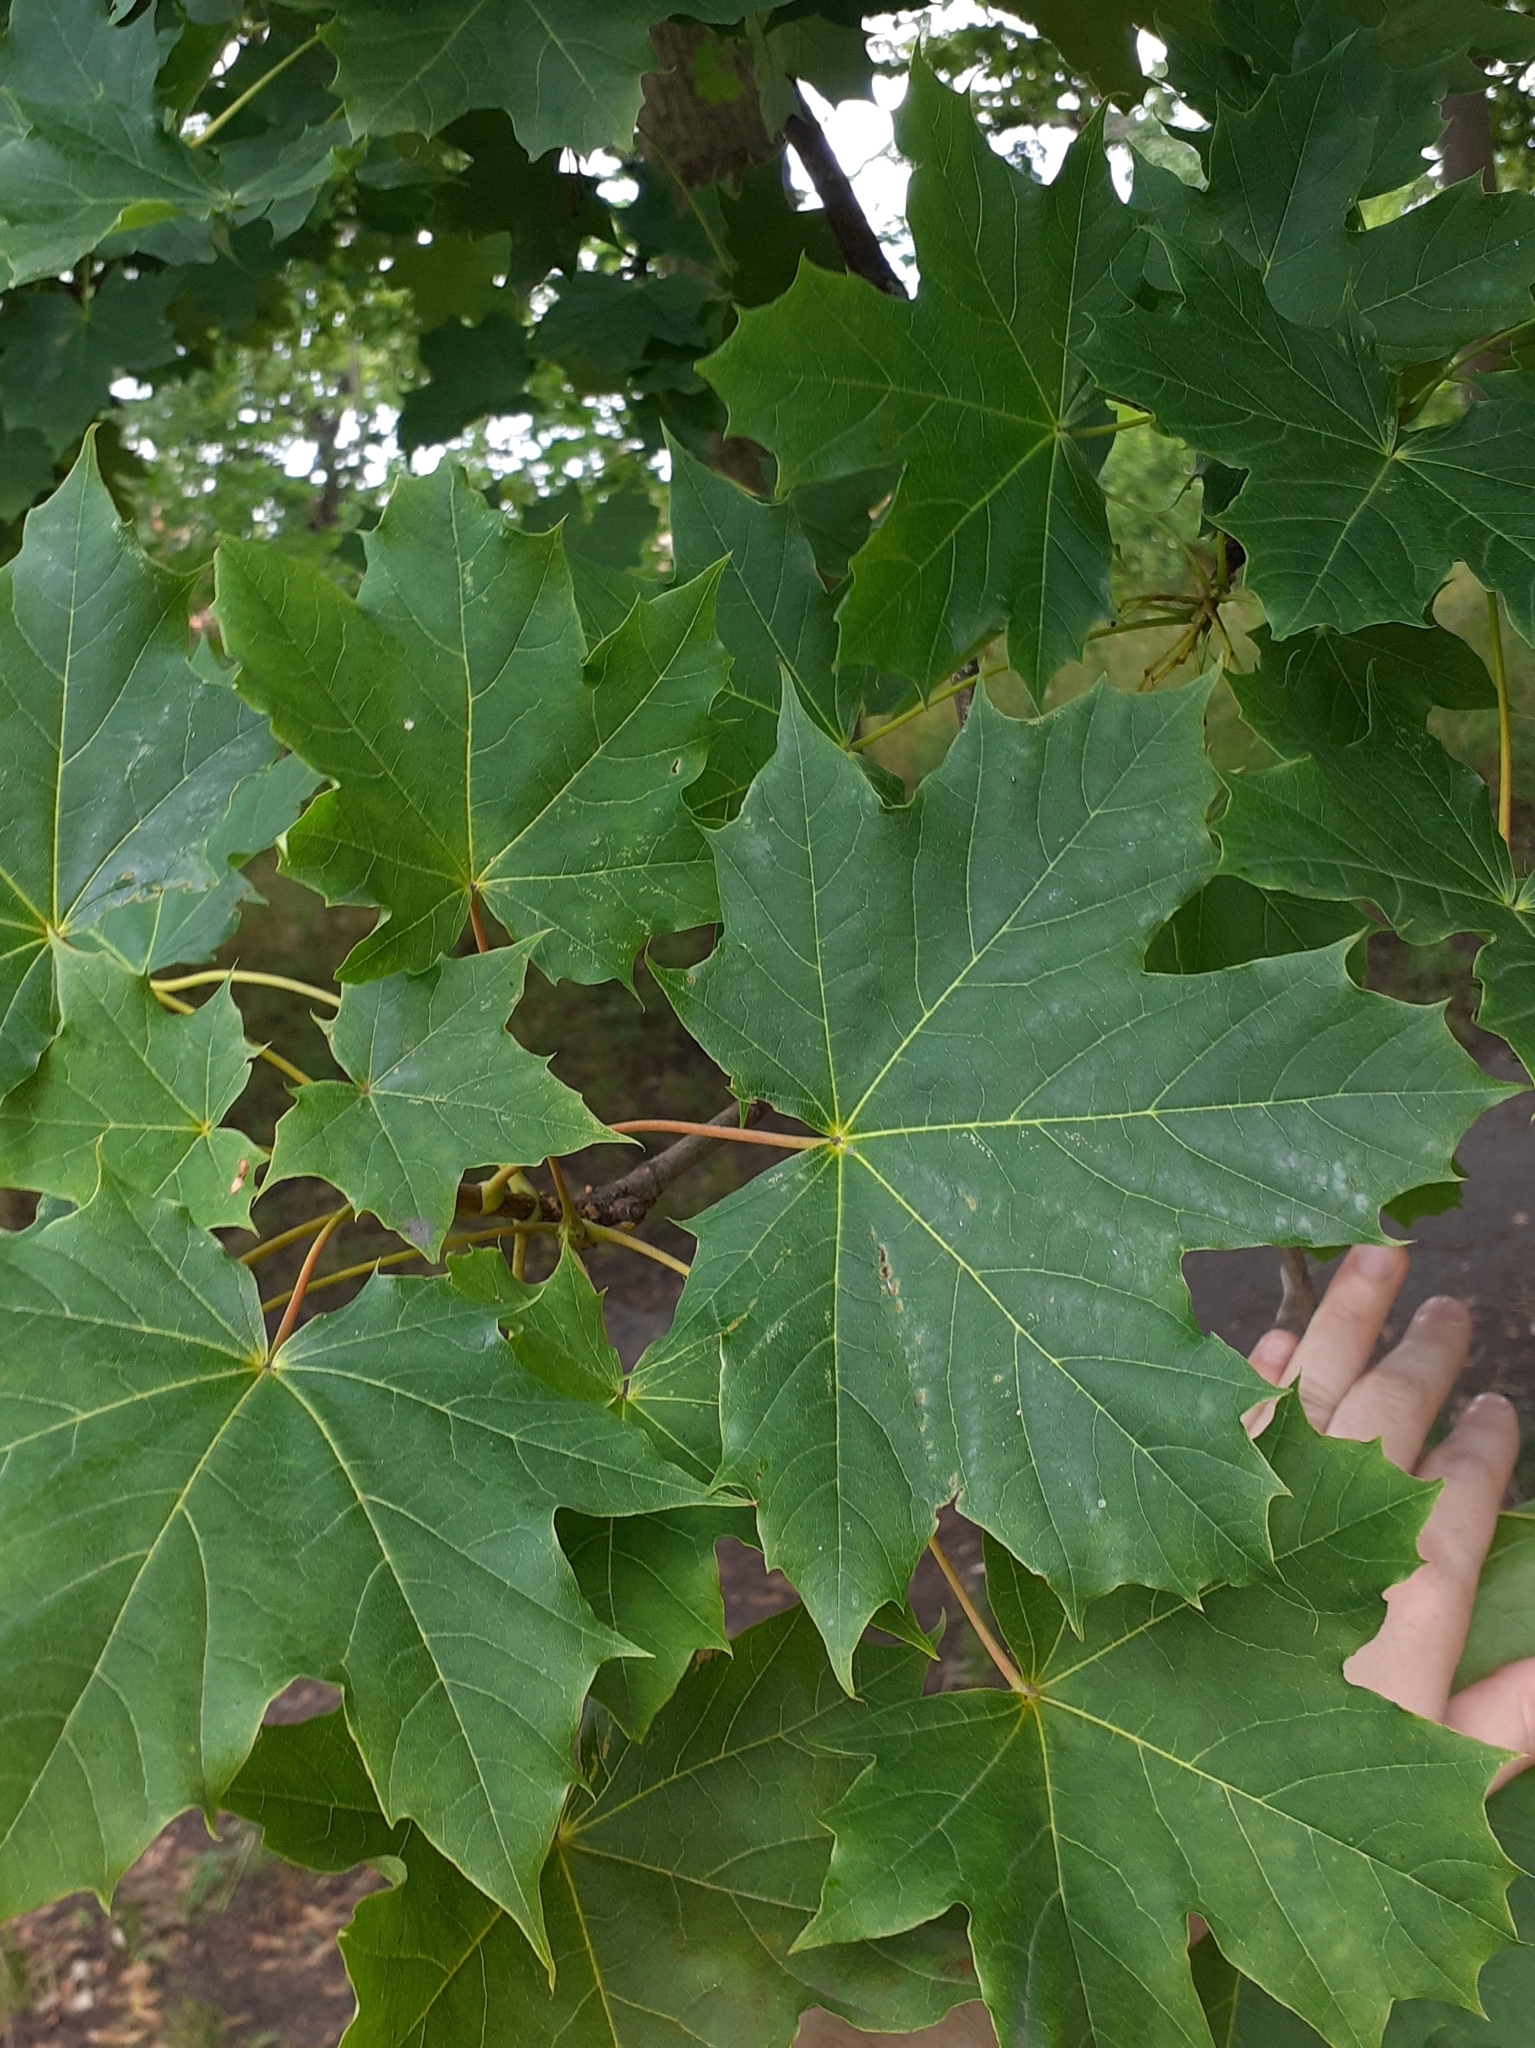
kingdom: Plantae
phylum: Tracheophyta
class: Magnoliopsida
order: Sapindales
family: Sapindaceae
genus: Acer
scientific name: Acer platanoides
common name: Norway maple
